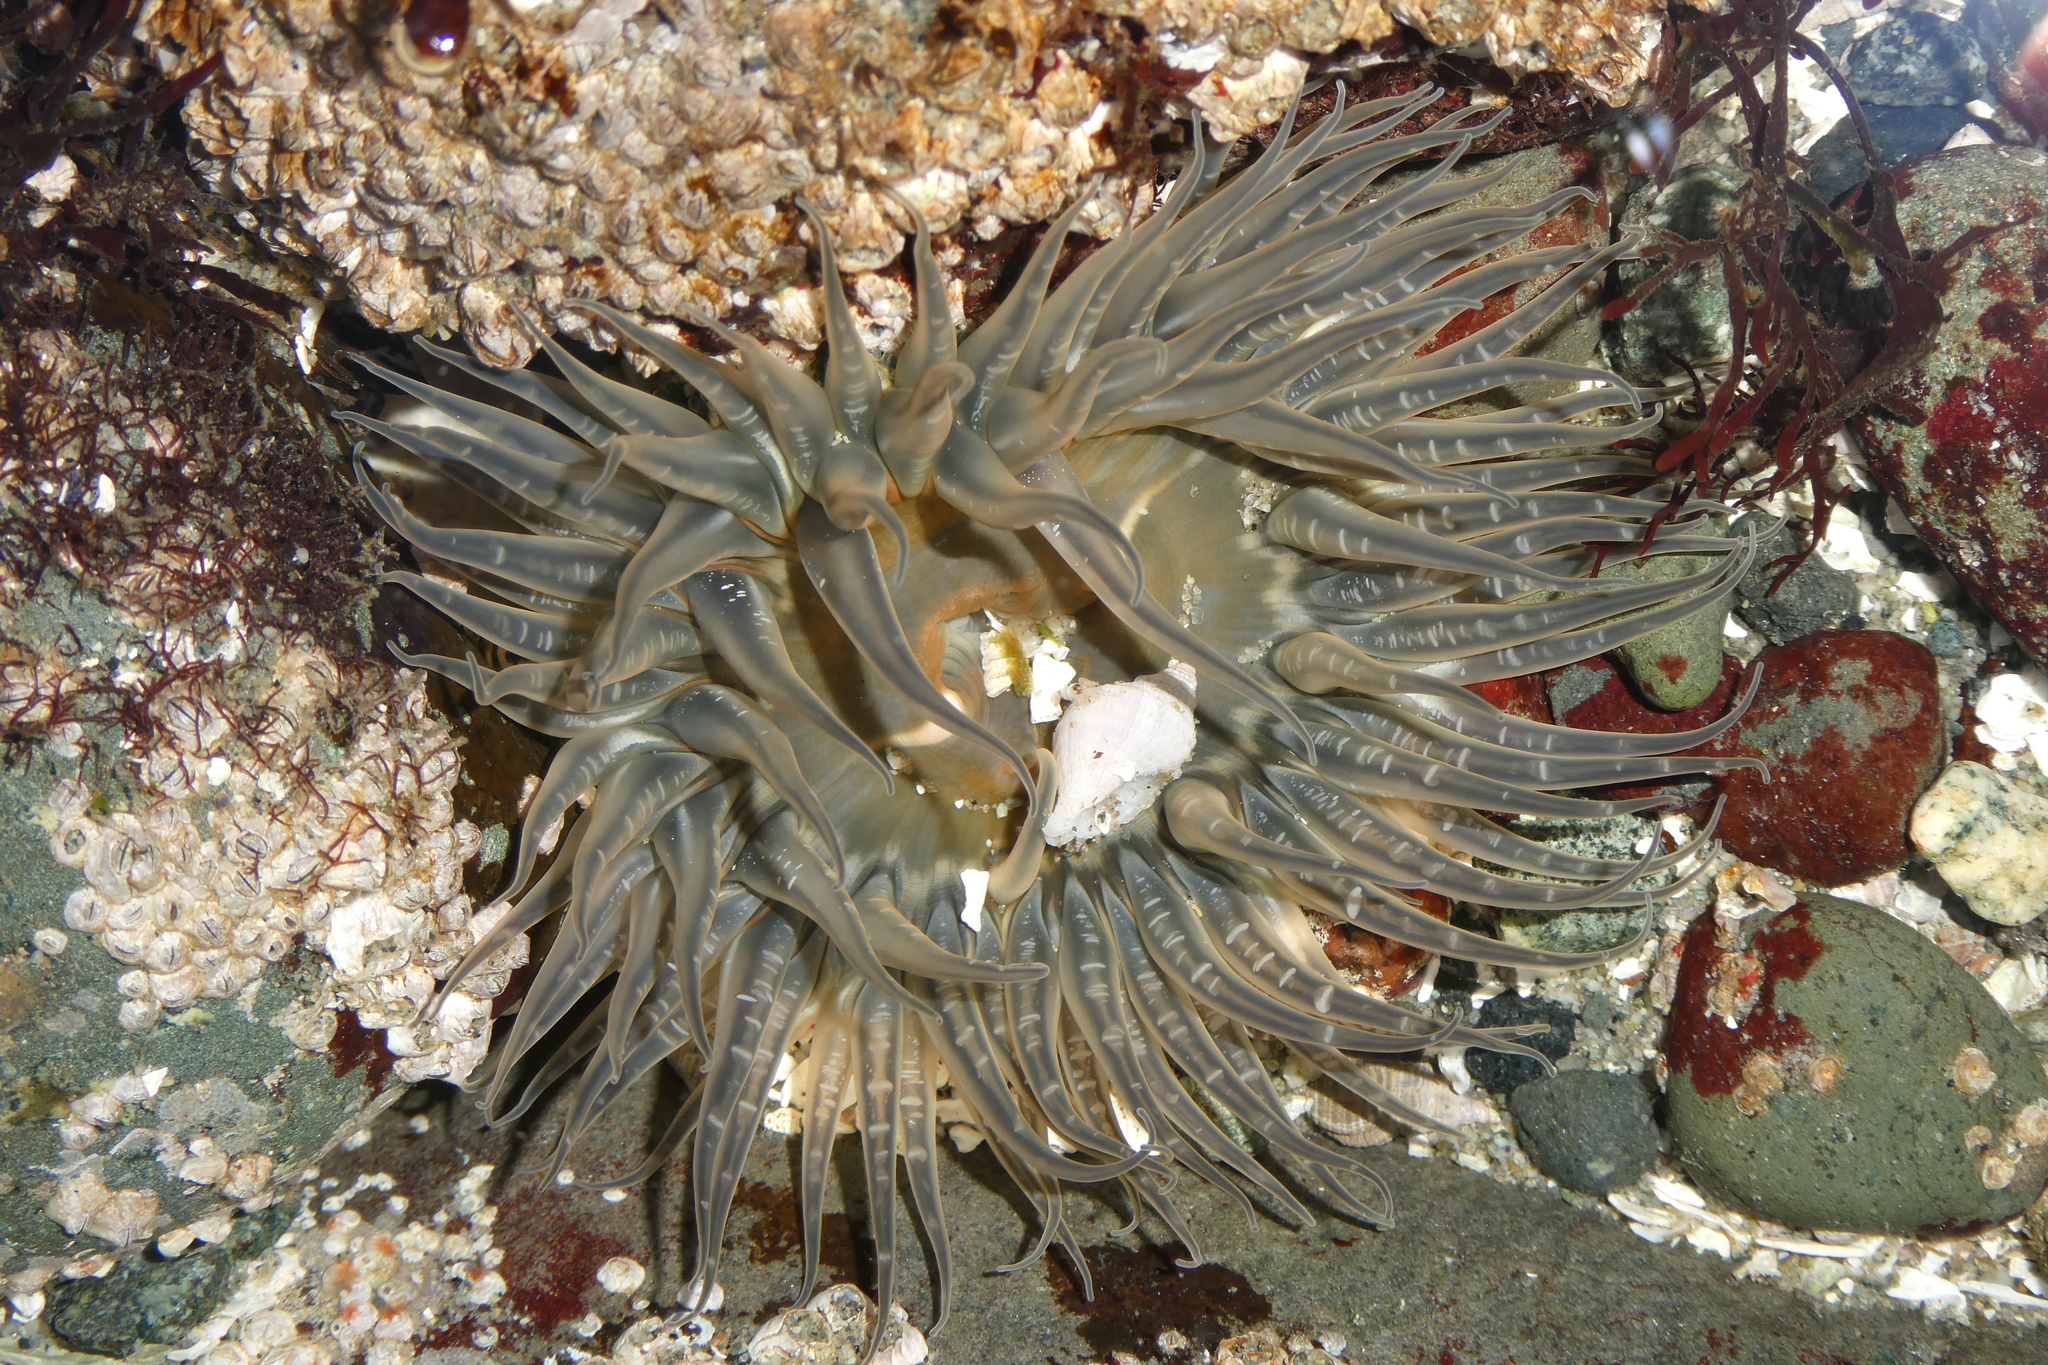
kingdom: Animalia
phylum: Cnidaria
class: Anthozoa
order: Actiniaria
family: Actiniidae
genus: Anthopleura
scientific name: Anthopleura artemisia
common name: Buried sea anemone
